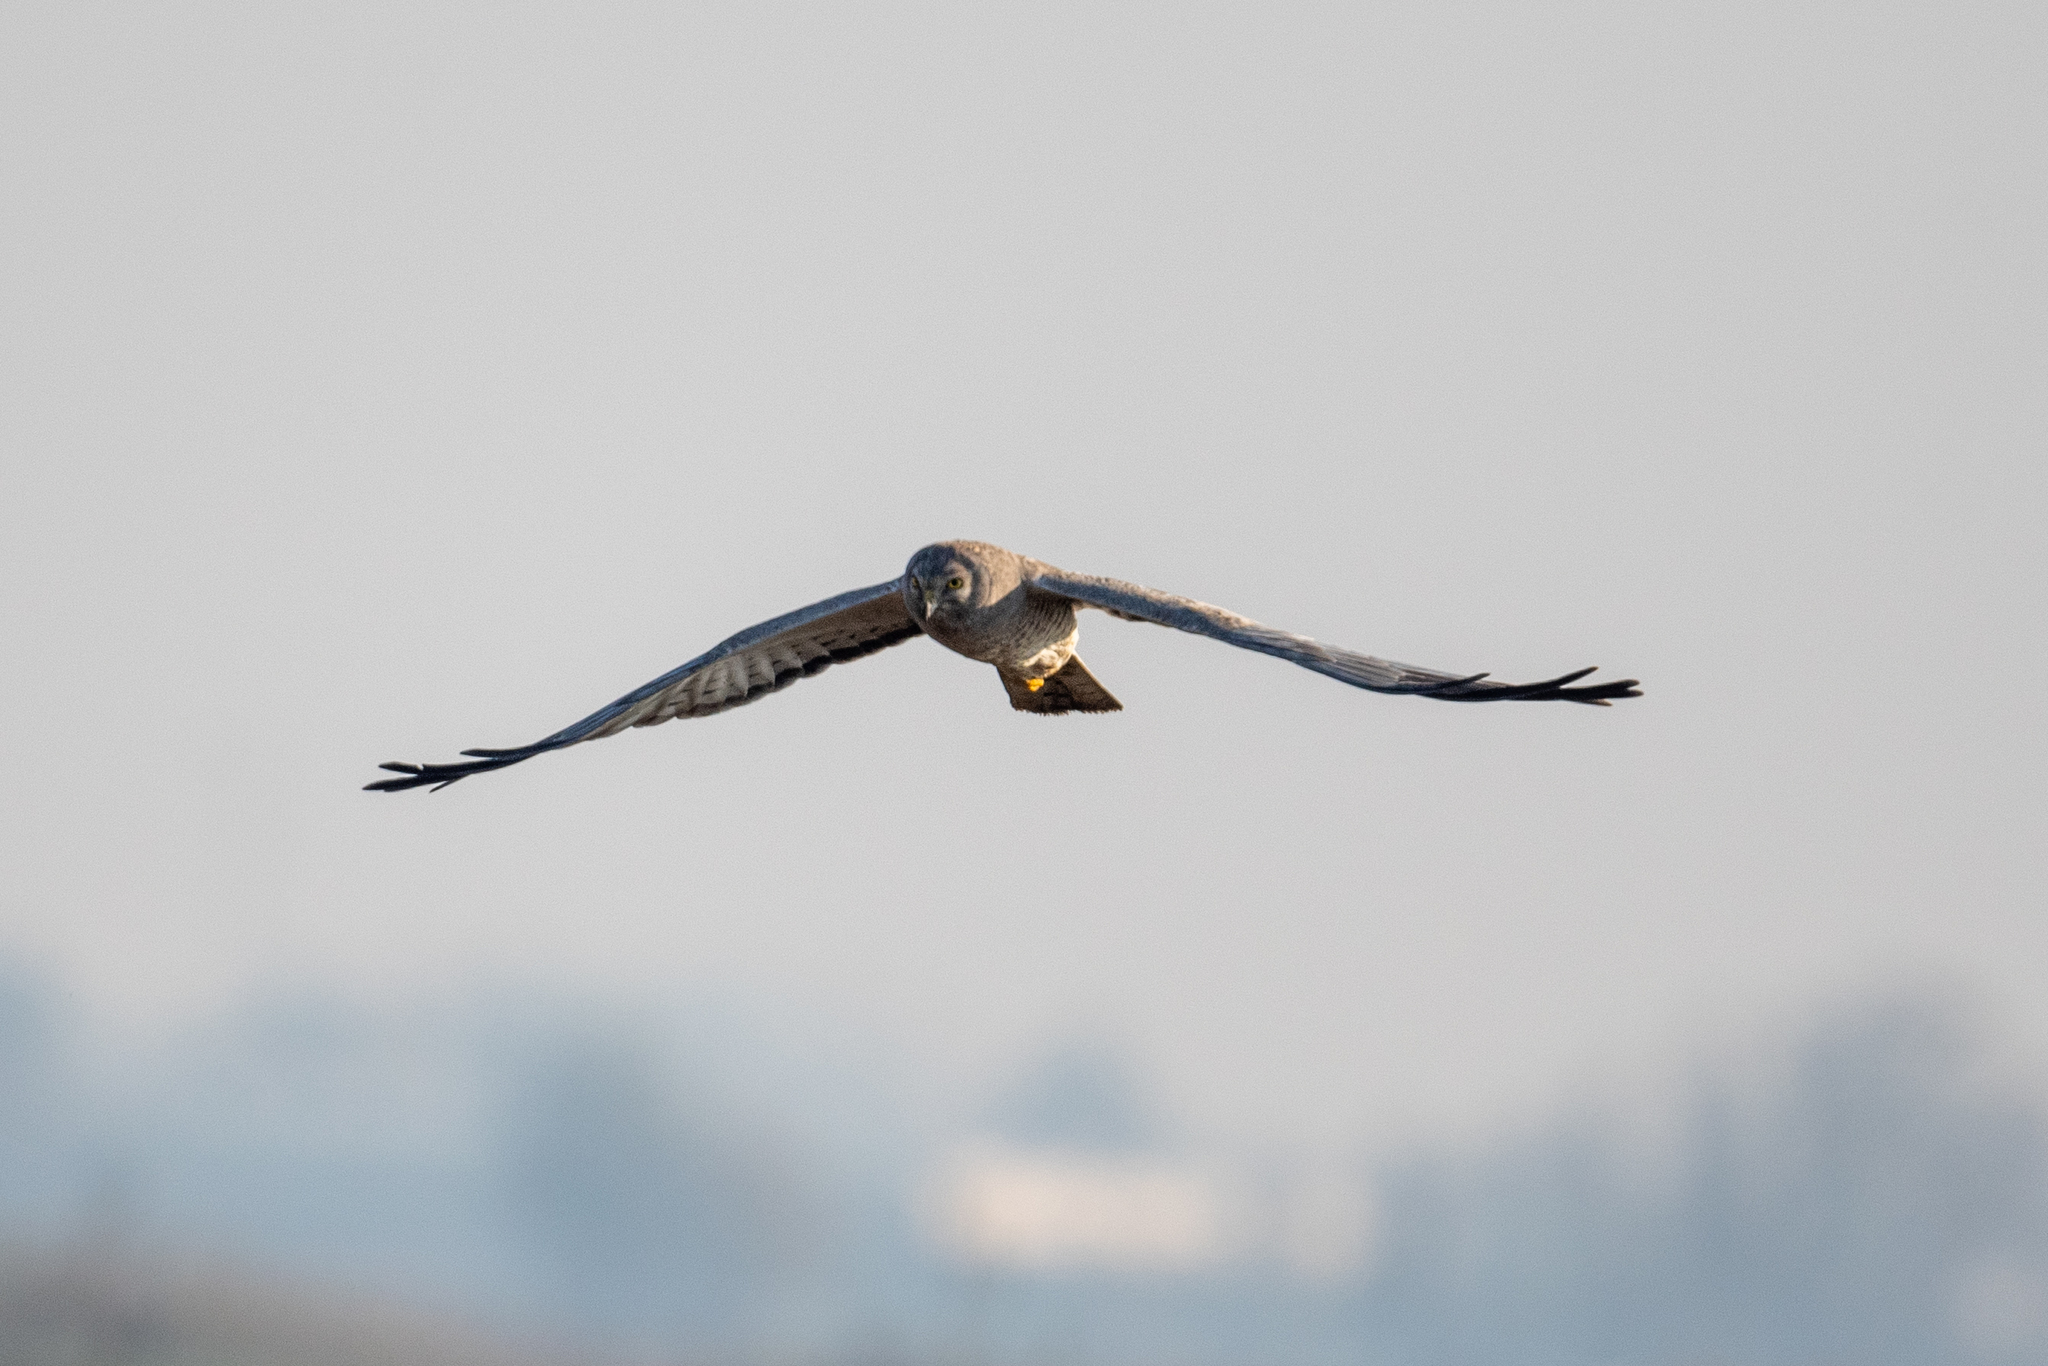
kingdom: Animalia
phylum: Chordata
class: Aves
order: Accipitriformes
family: Accipitridae
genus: Circus
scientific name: Circus cyaneus
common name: Hen harrier
